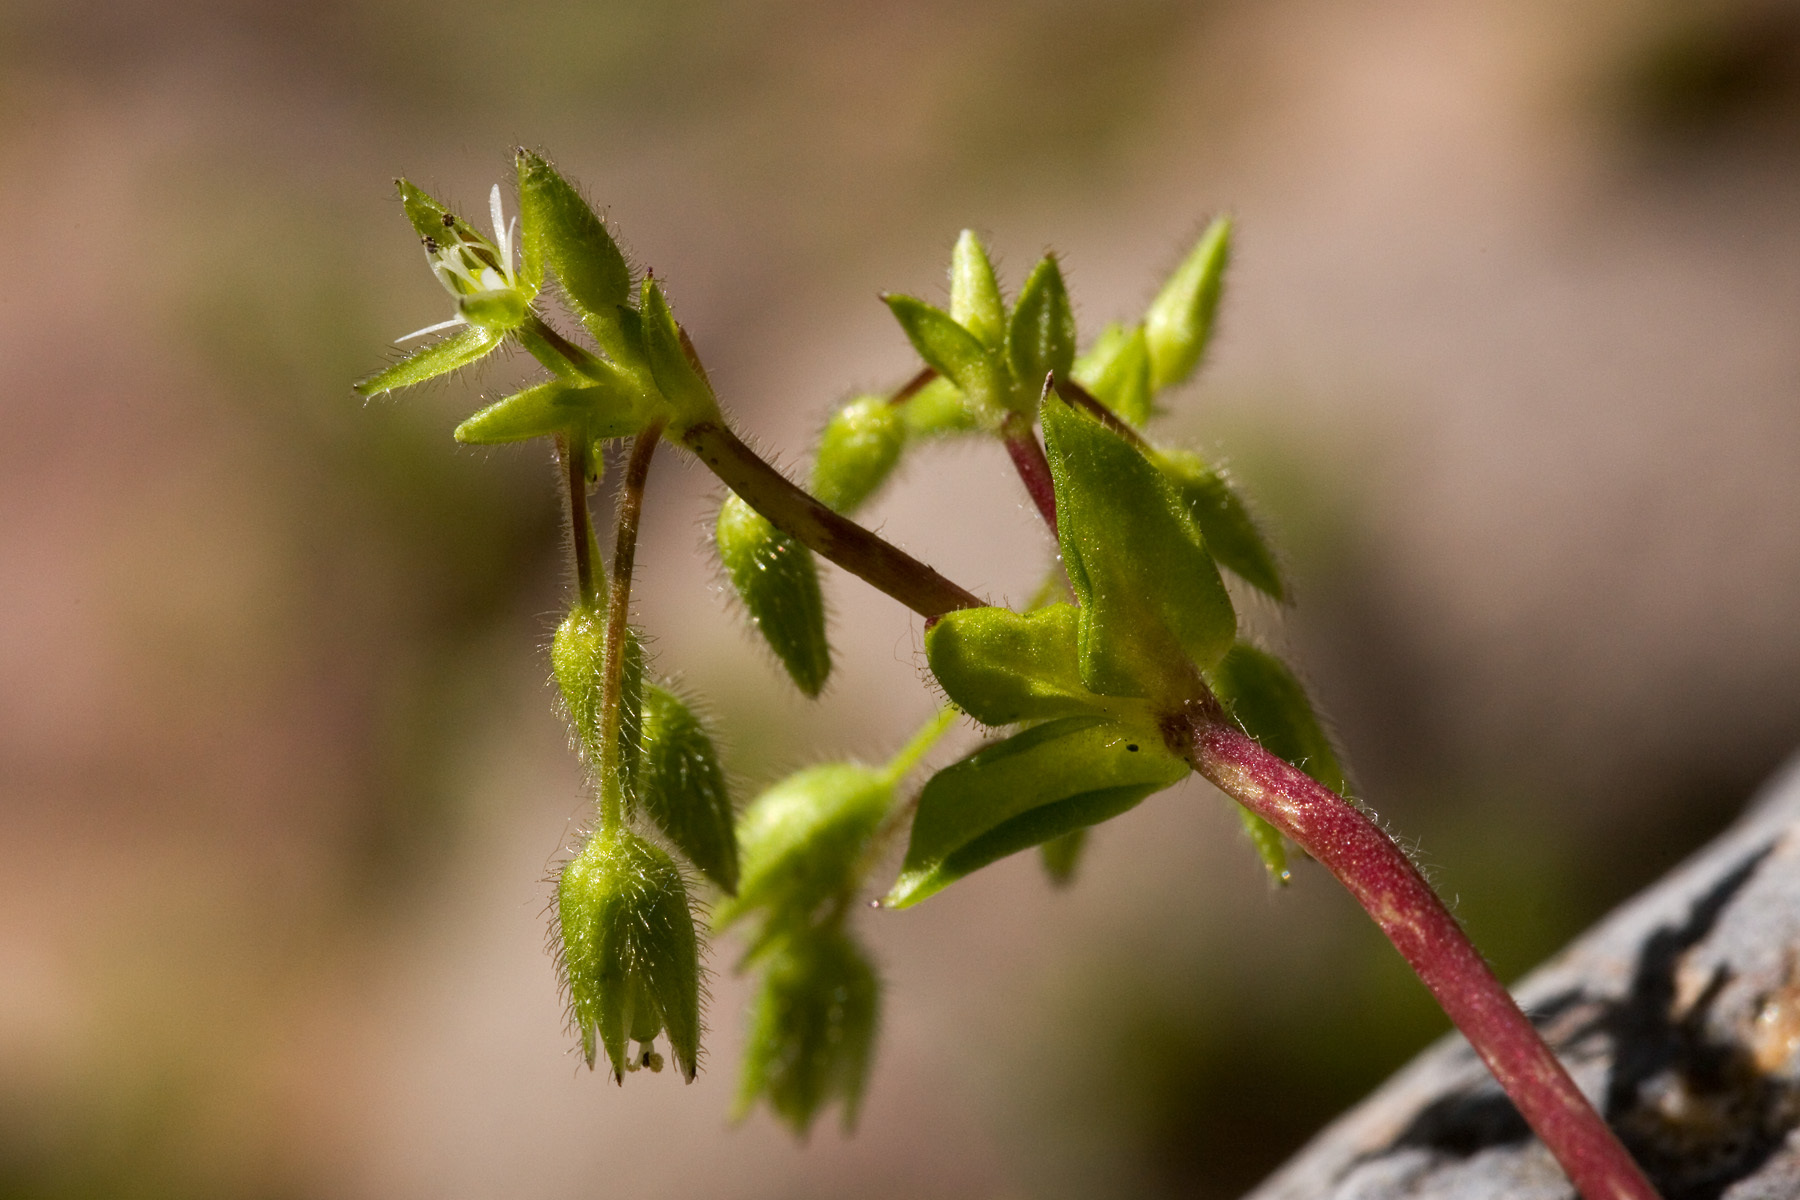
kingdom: Plantae
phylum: Tracheophyta
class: Magnoliopsida
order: Caryophyllales
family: Caryophyllaceae
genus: Stellaria
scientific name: Stellaria media
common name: Common chickweed
